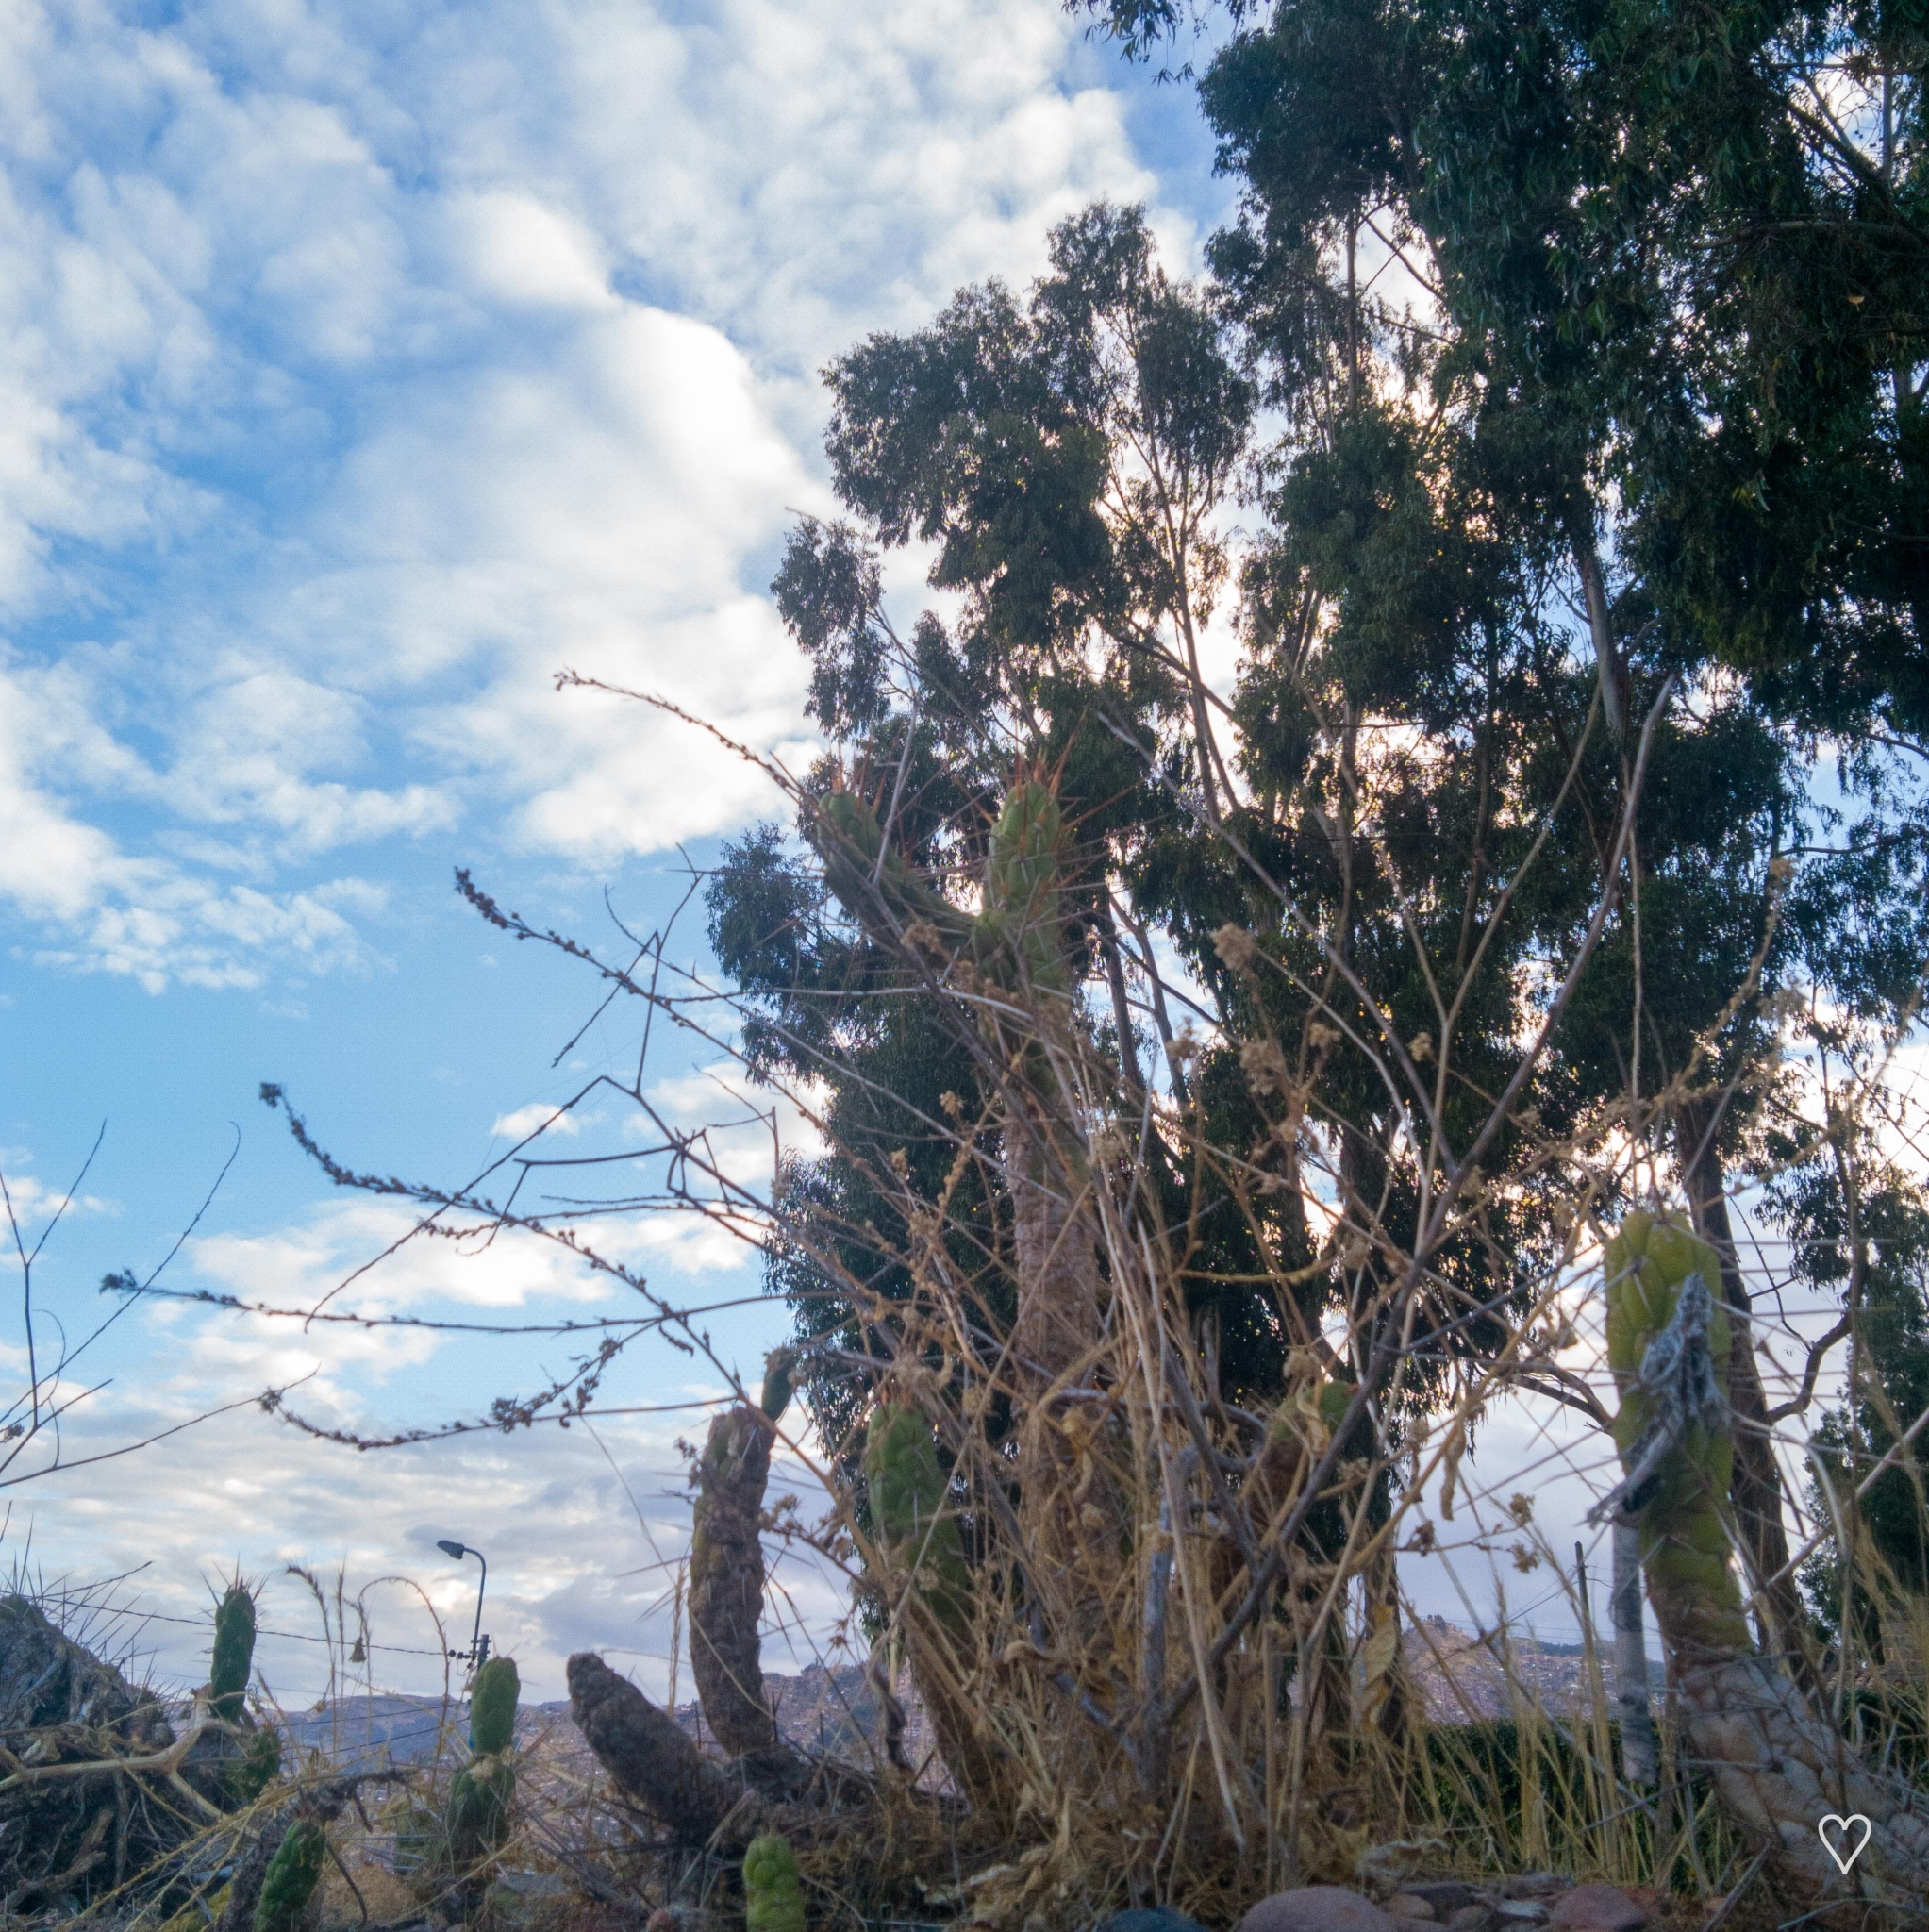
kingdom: Plantae
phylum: Tracheophyta
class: Magnoliopsida
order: Caryophyllales
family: Cactaceae
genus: Austrocylindropuntia
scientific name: Austrocylindropuntia subulata
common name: Eve's needle cactus
